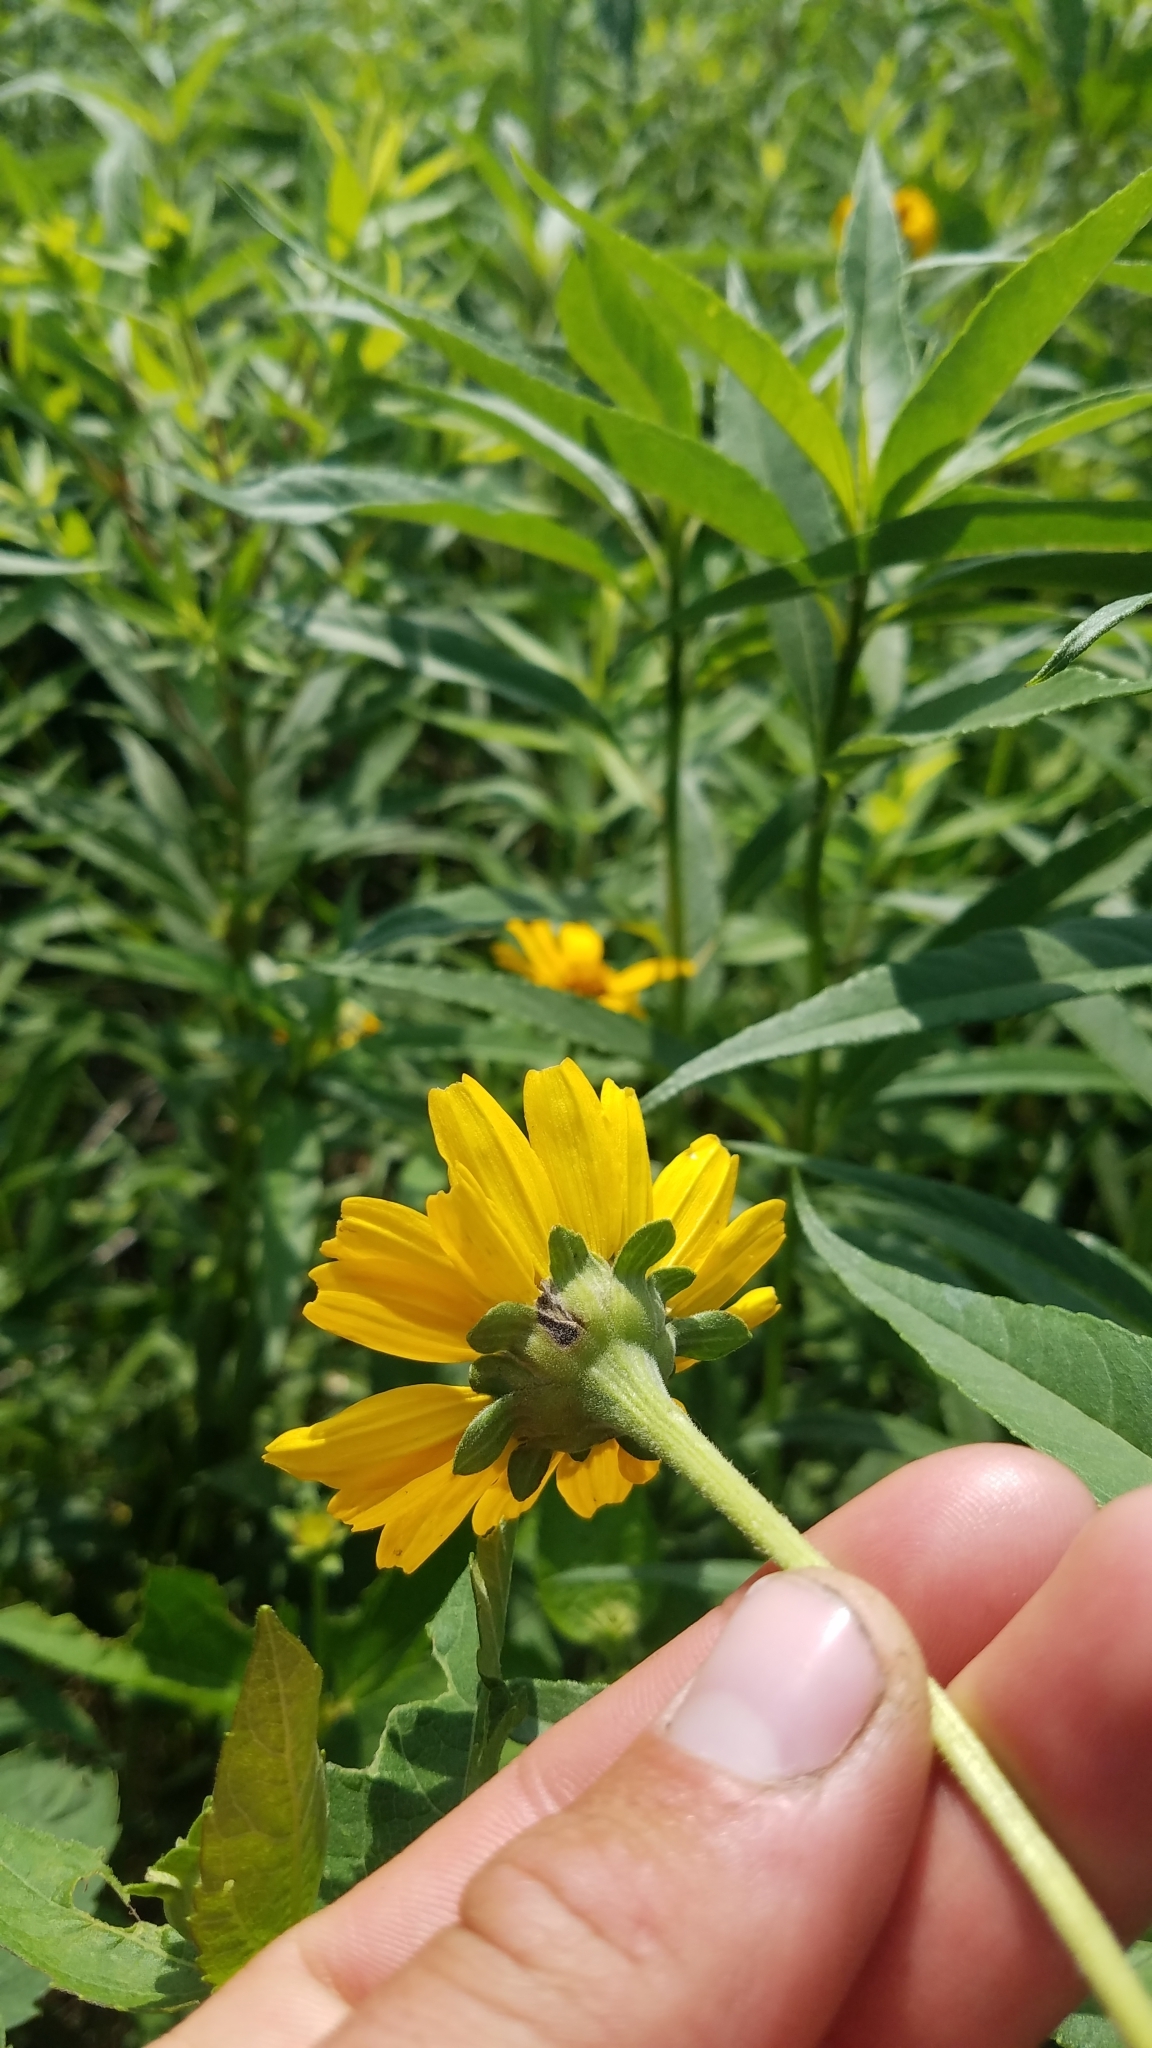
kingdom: Plantae
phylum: Tracheophyta
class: Magnoliopsida
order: Asterales
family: Asteraceae
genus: Heliopsis
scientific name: Heliopsis helianthoides
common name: False sunflower
